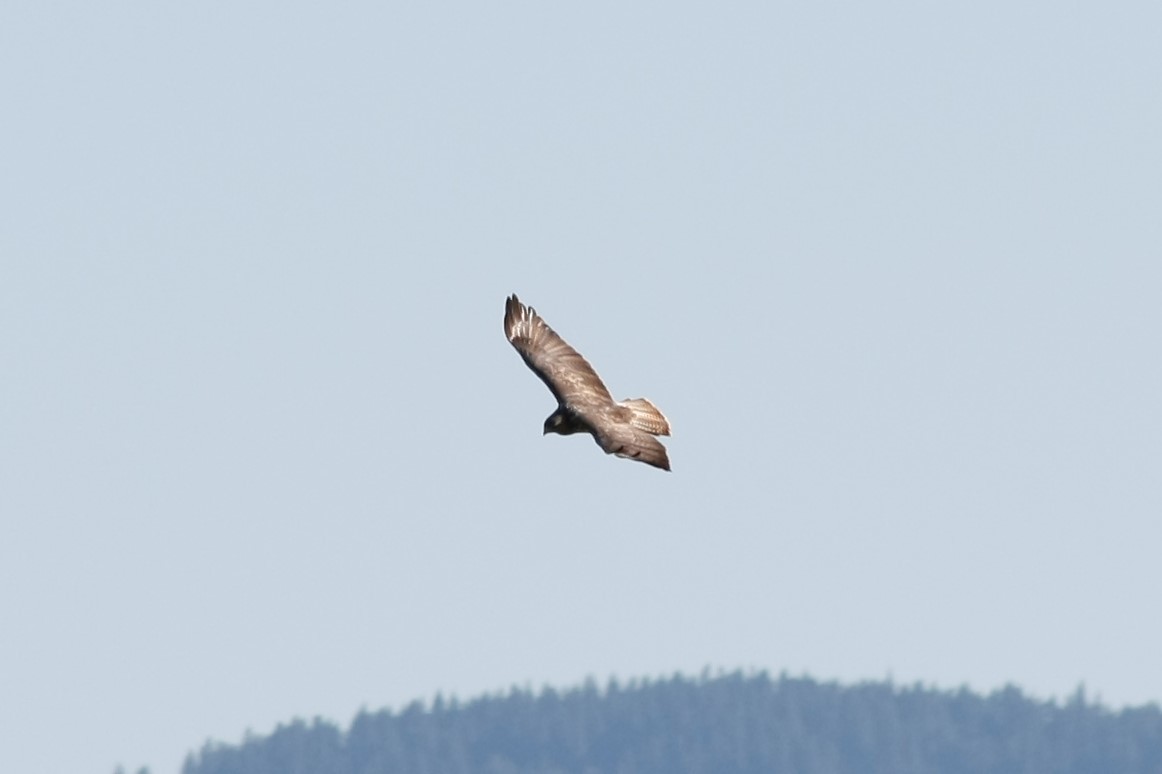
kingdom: Animalia
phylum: Chordata
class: Aves
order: Accipitriformes
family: Accipitridae
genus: Buteo
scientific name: Buteo buteo
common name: Common buzzard
